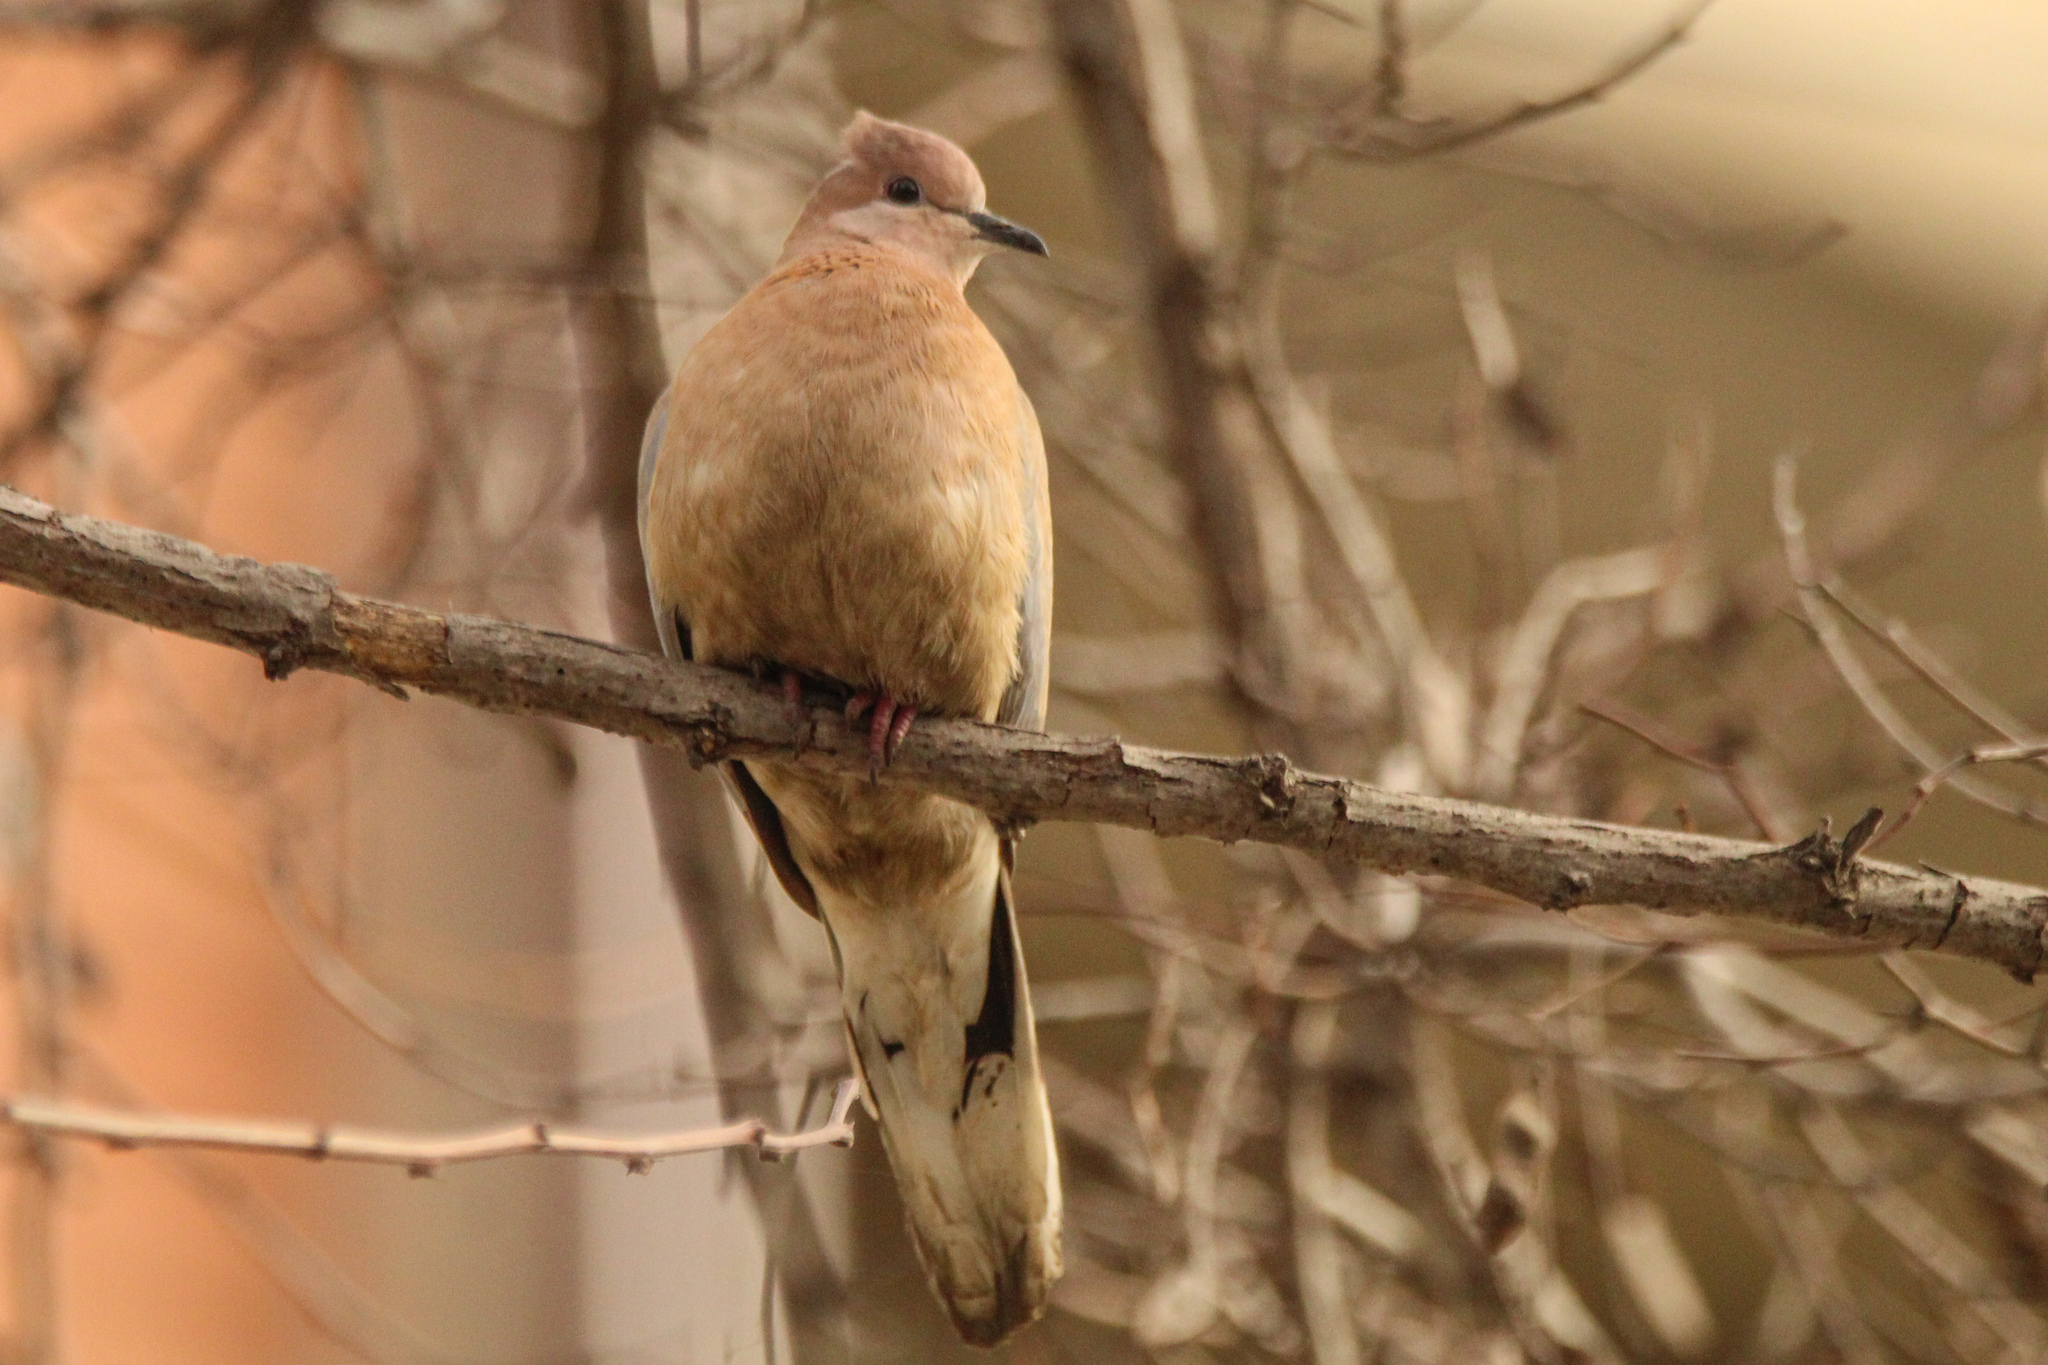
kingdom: Animalia
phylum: Chordata
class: Aves
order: Columbiformes
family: Columbidae
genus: Spilopelia
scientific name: Spilopelia senegalensis
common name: Laughing dove
